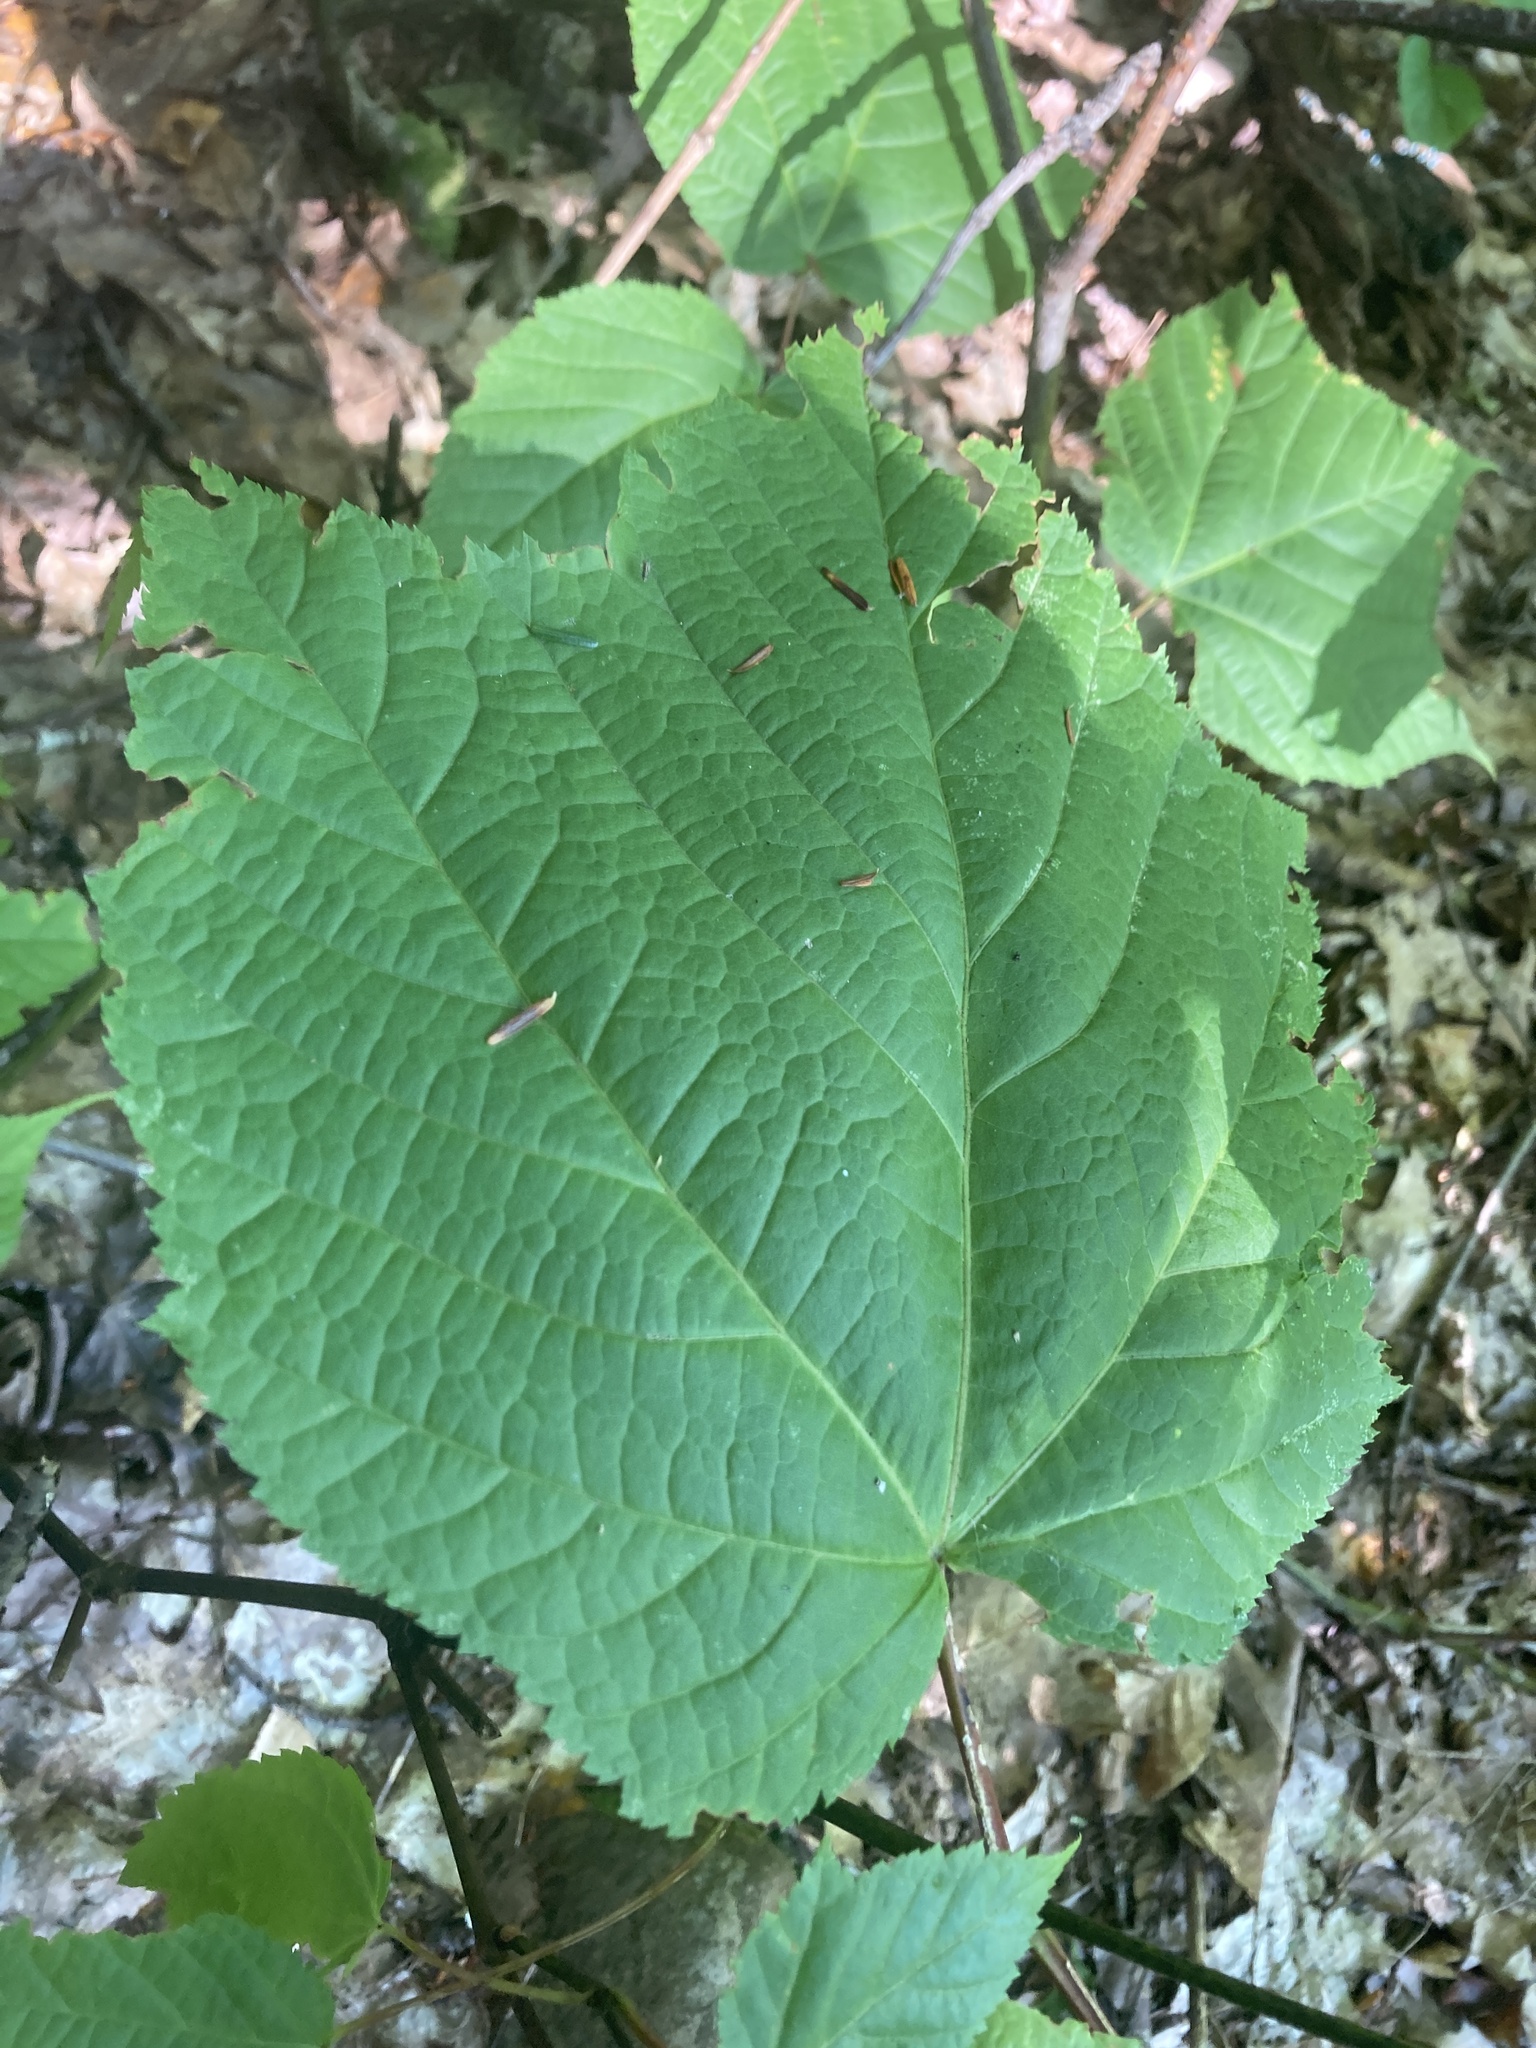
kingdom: Plantae
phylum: Tracheophyta
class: Magnoliopsida
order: Sapindales
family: Sapindaceae
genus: Acer
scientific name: Acer pensylvanicum
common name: Moosewood
